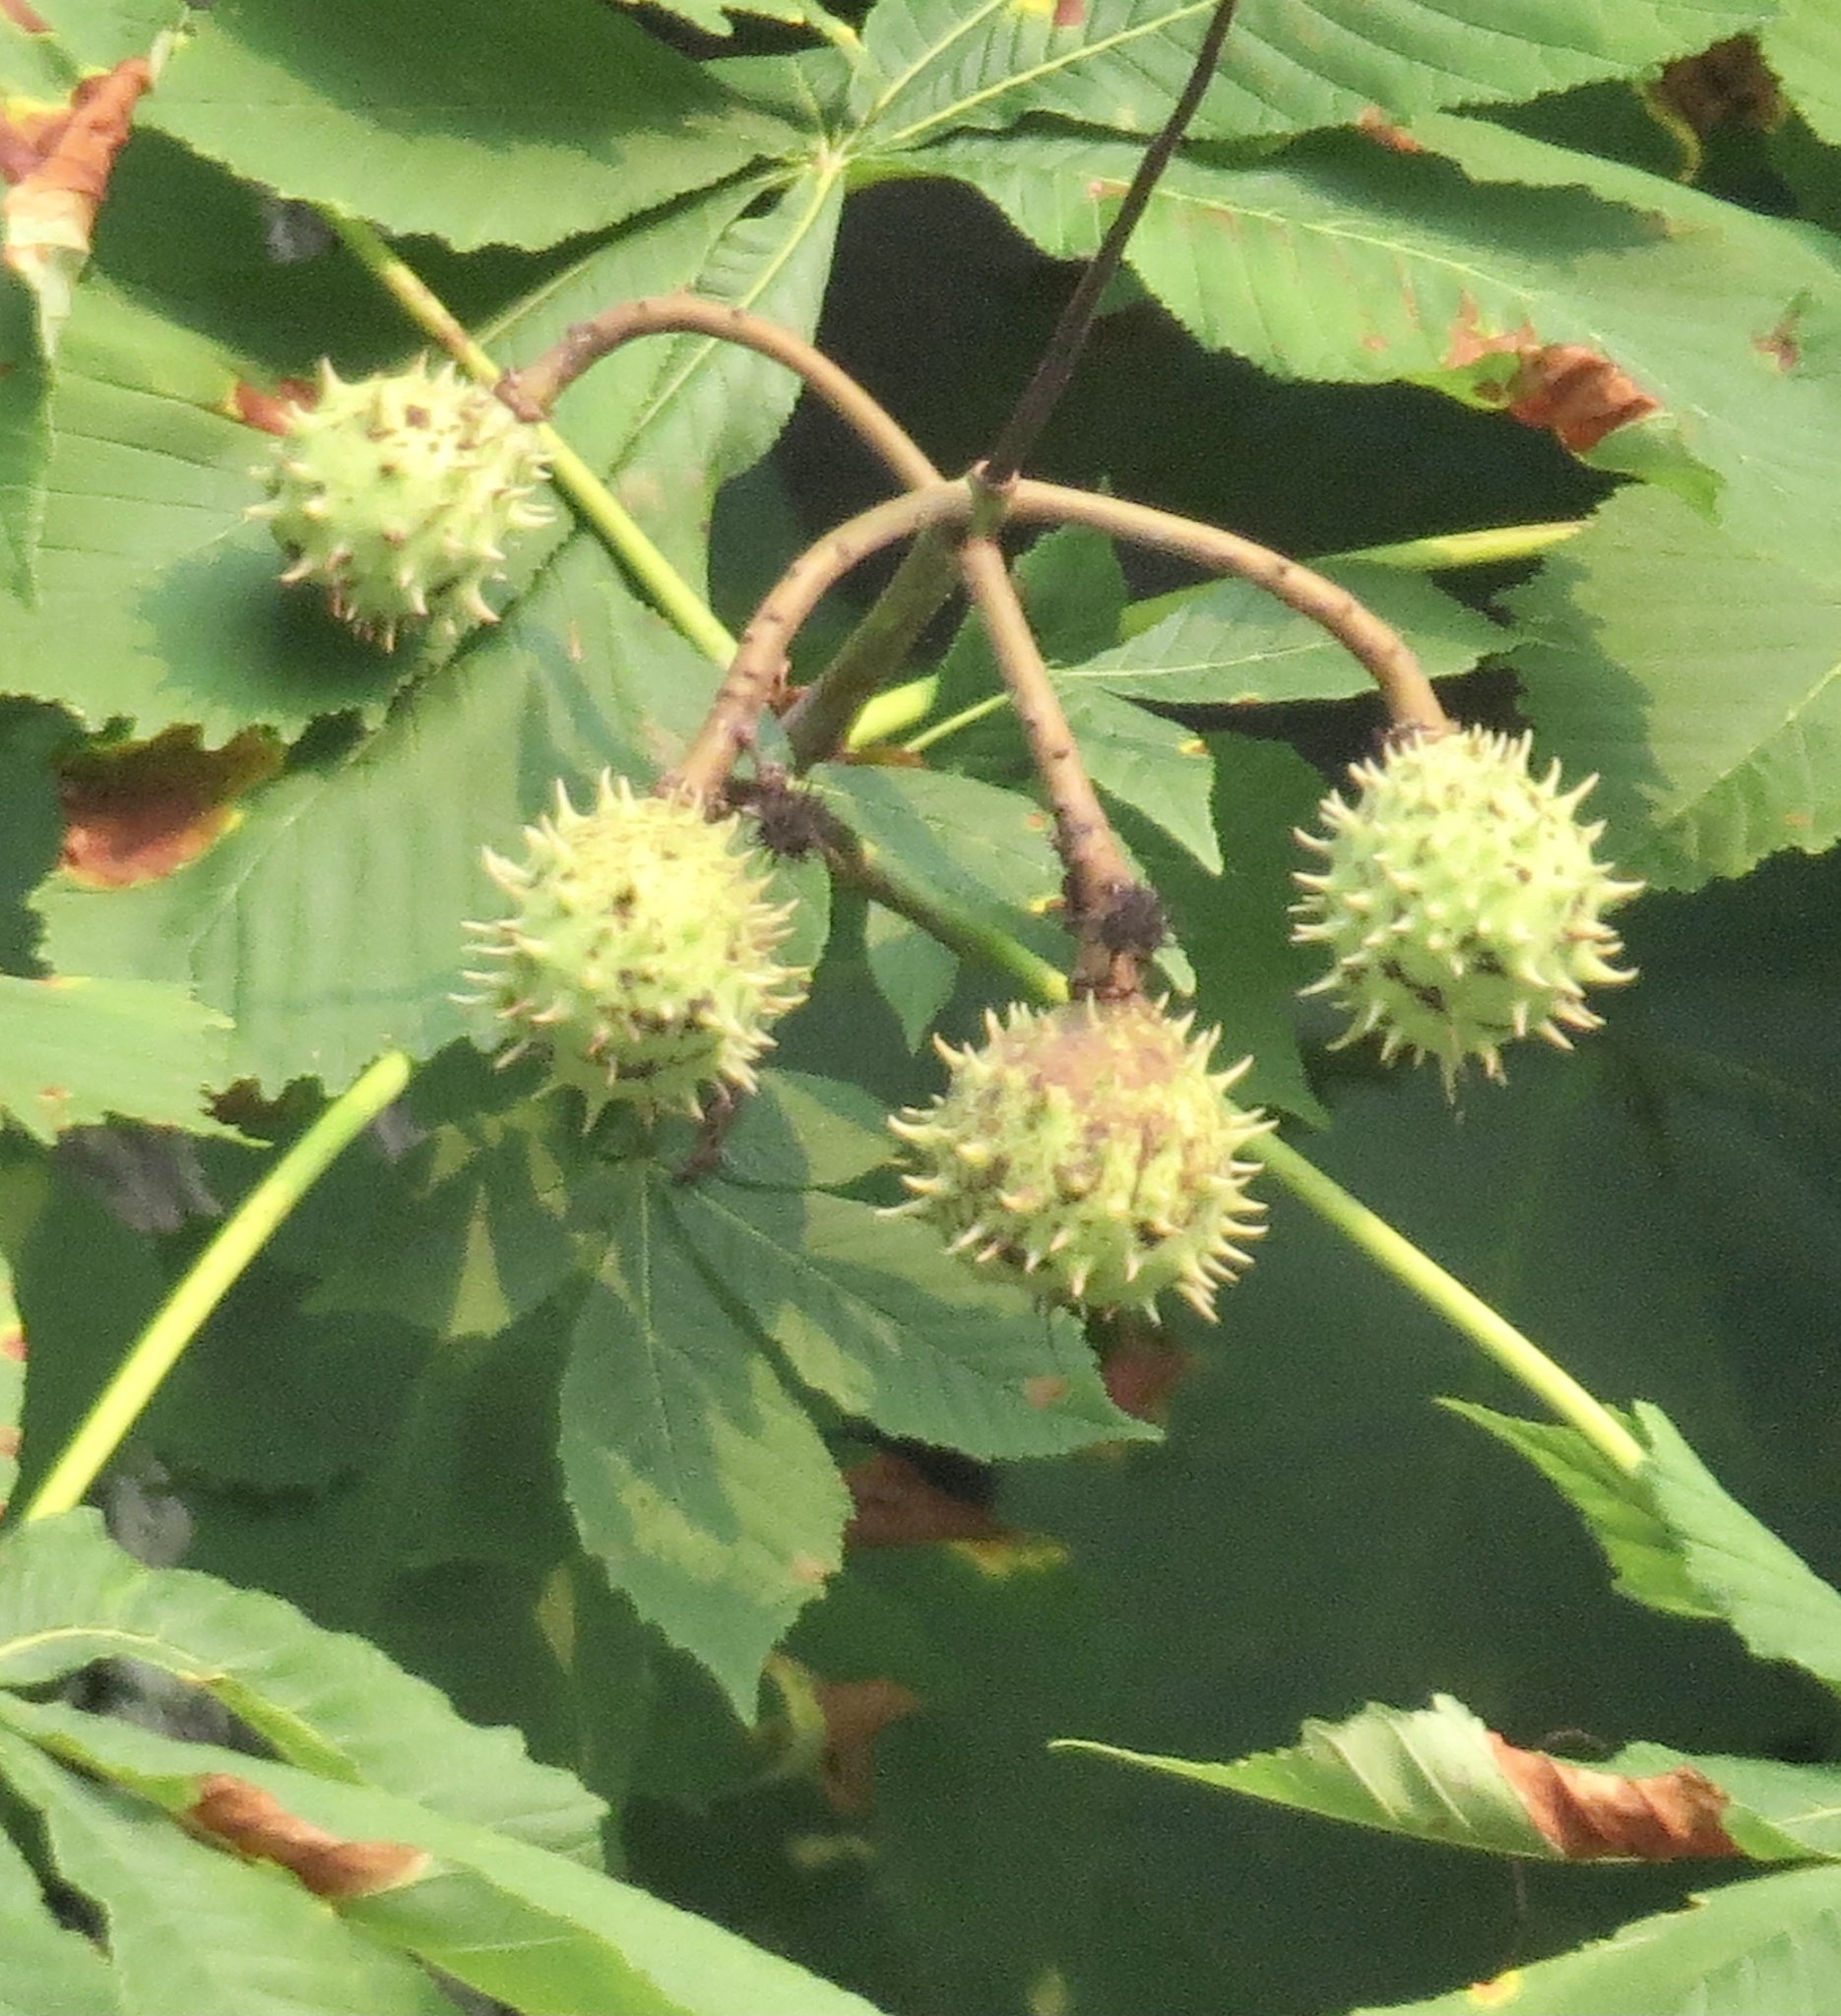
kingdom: Plantae
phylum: Tracheophyta
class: Magnoliopsida
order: Sapindales
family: Sapindaceae
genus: Aesculus
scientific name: Aesculus hippocastanum
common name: Horse-chestnut
